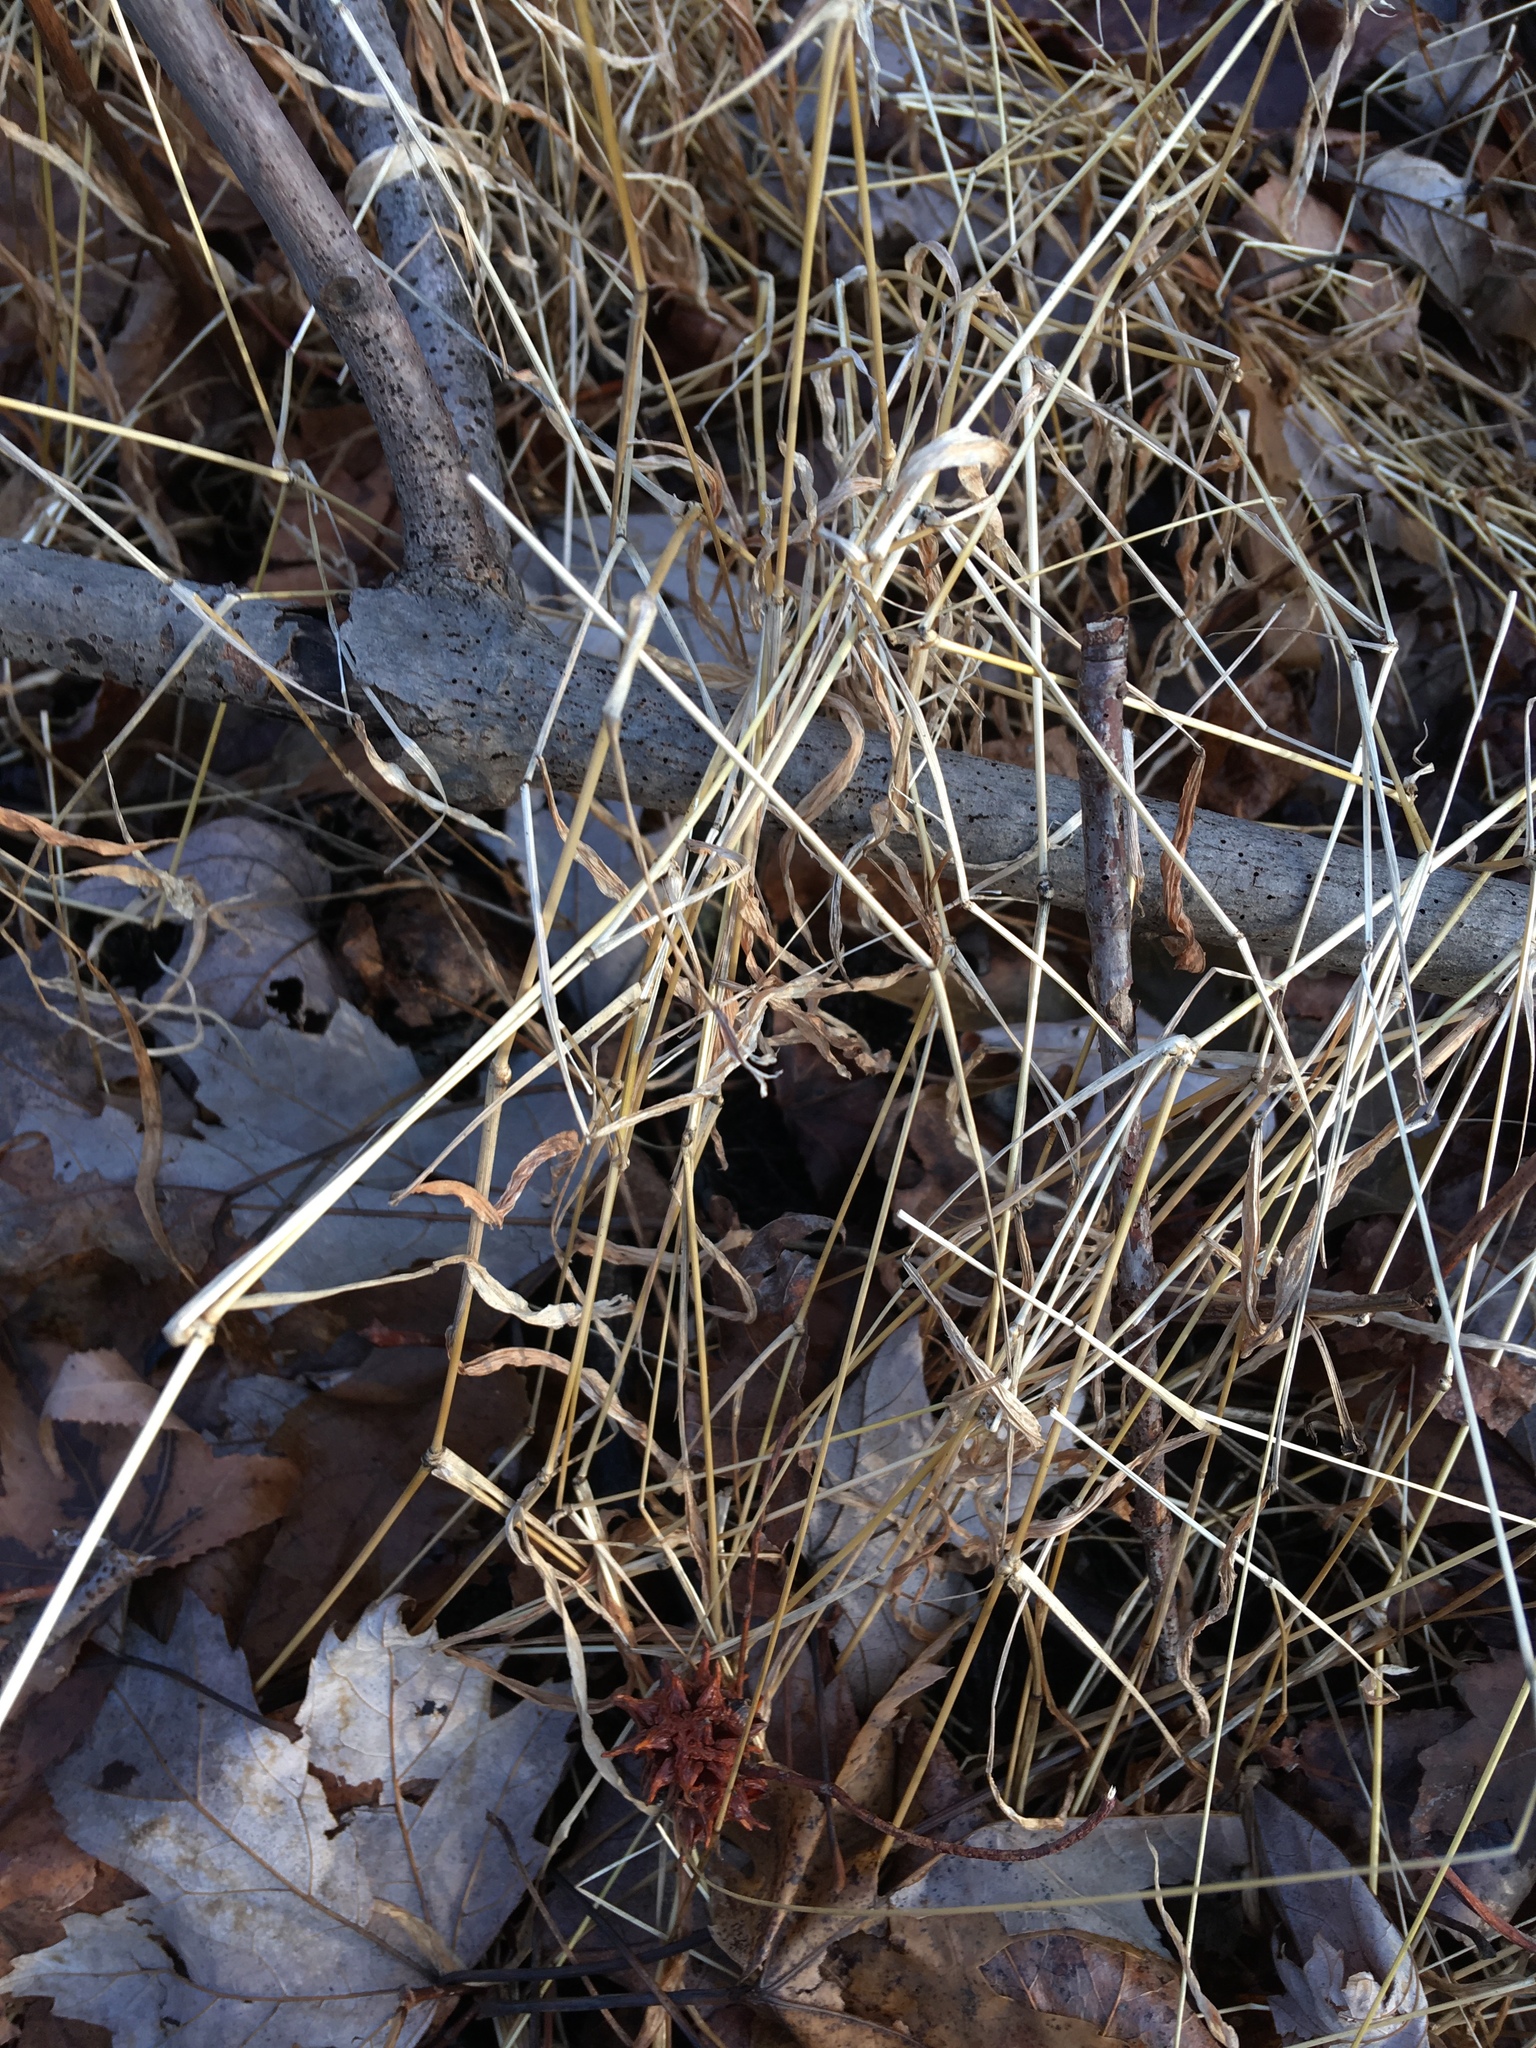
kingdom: Plantae
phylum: Tracheophyta
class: Liliopsida
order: Poales
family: Poaceae
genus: Microstegium
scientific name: Microstegium vimineum
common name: Japanese stiltgrass
